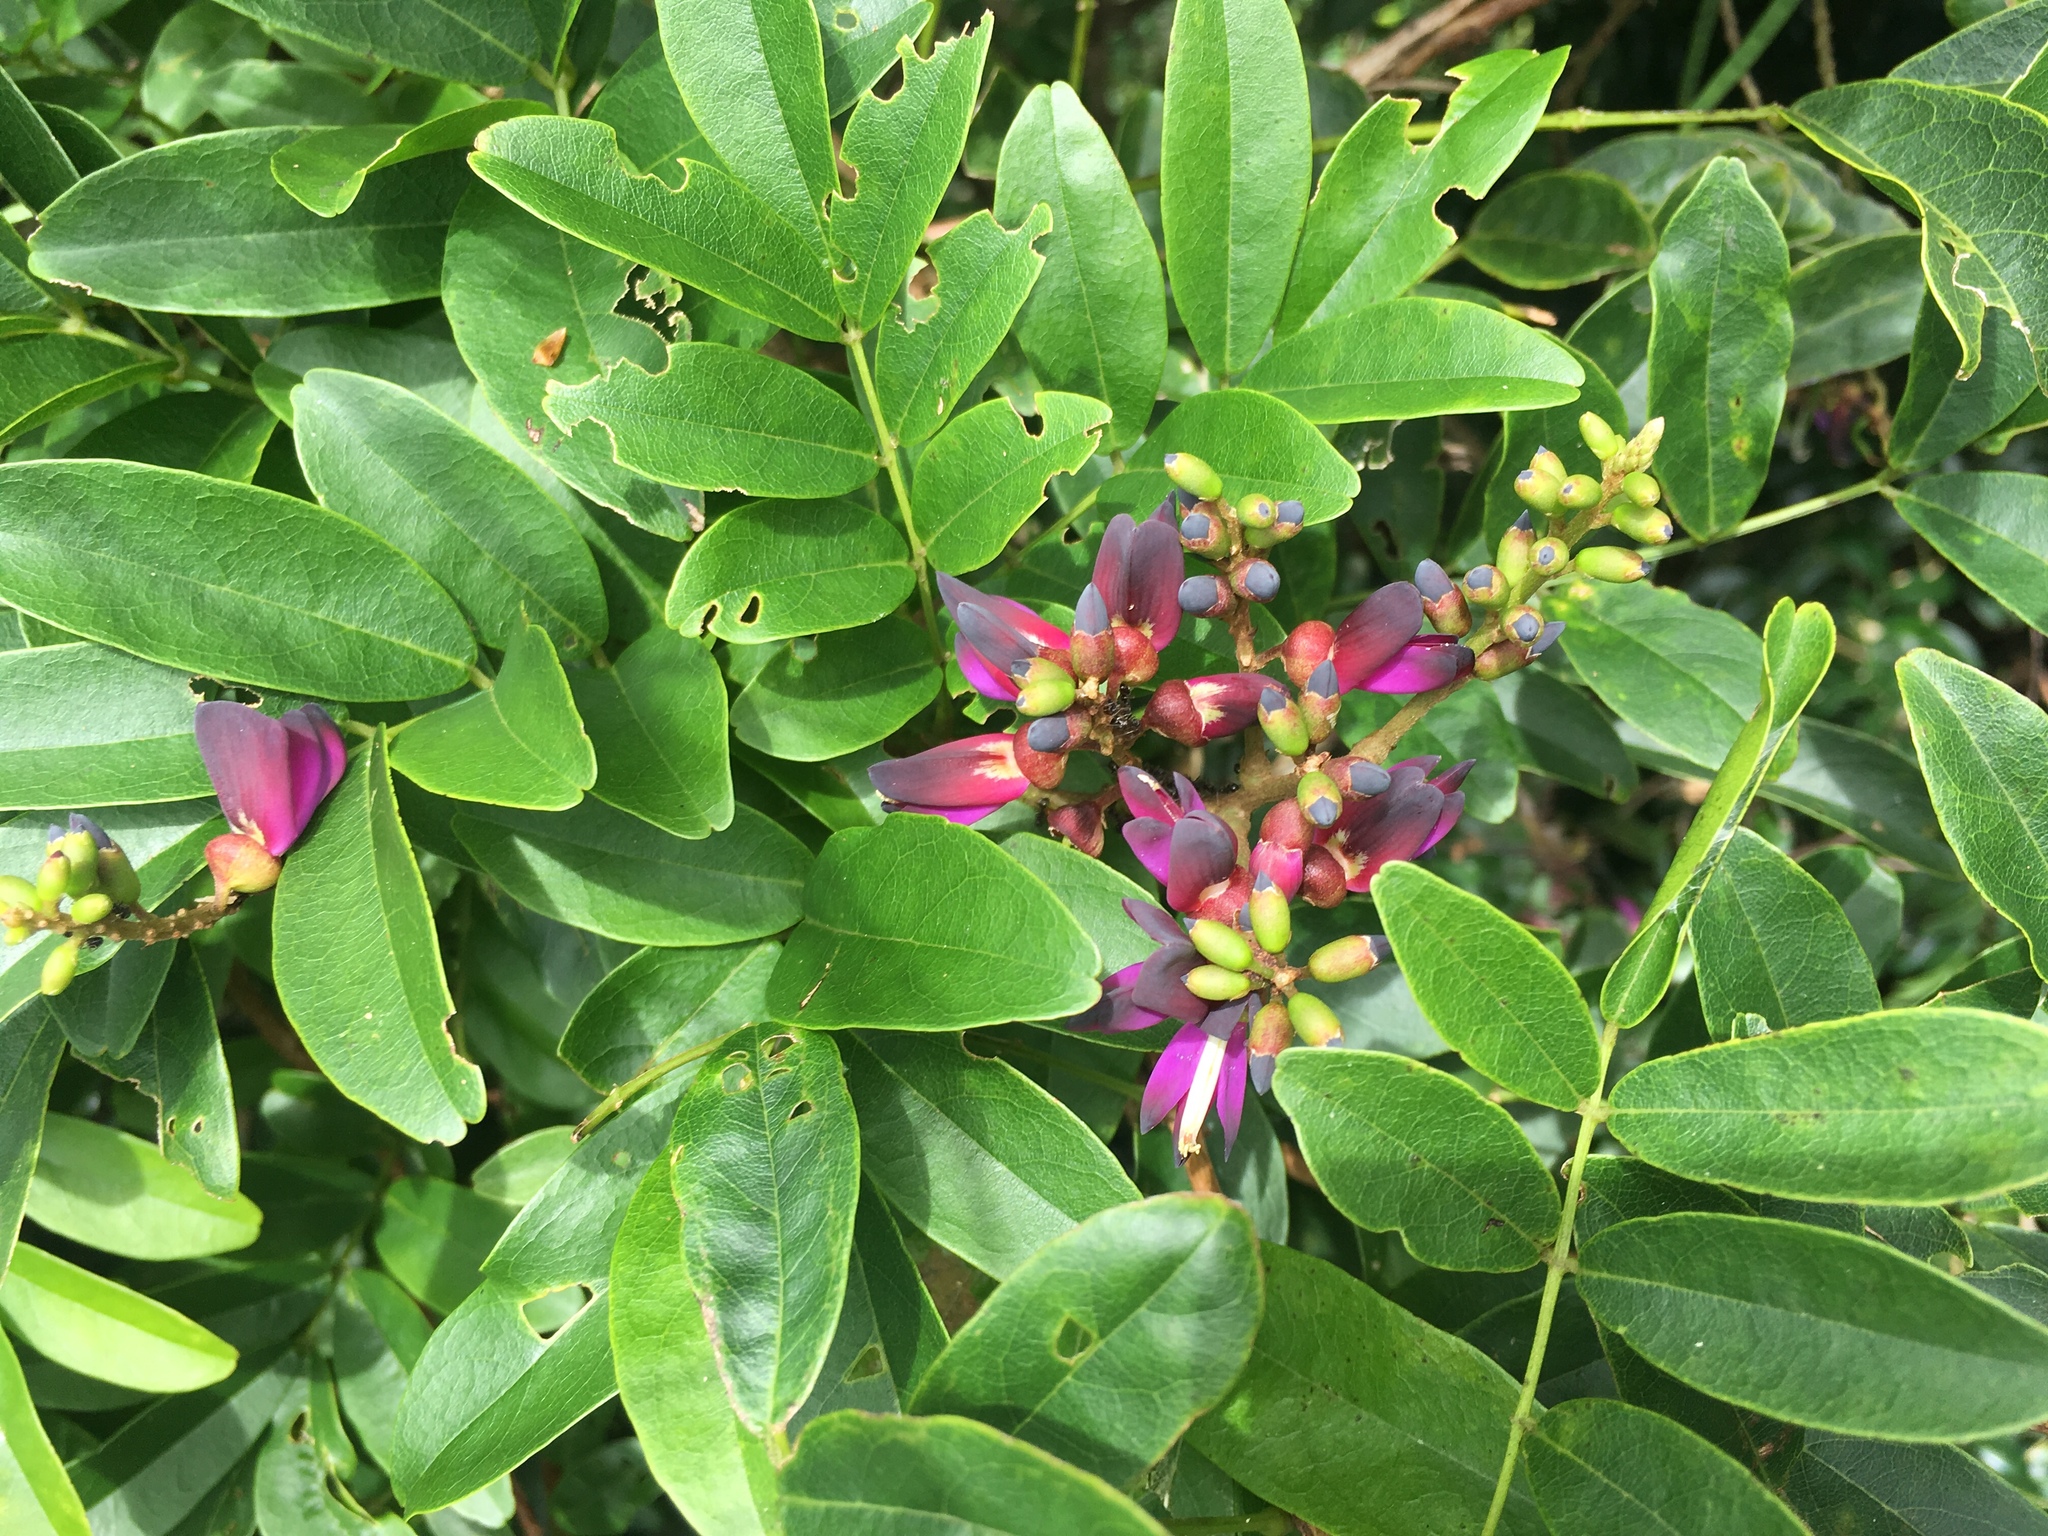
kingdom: Plantae
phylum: Tracheophyta
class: Magnoliopsida
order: Fabales
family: Fabaceae
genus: Wisteriopsis
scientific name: Wisteriopsis reticulata
